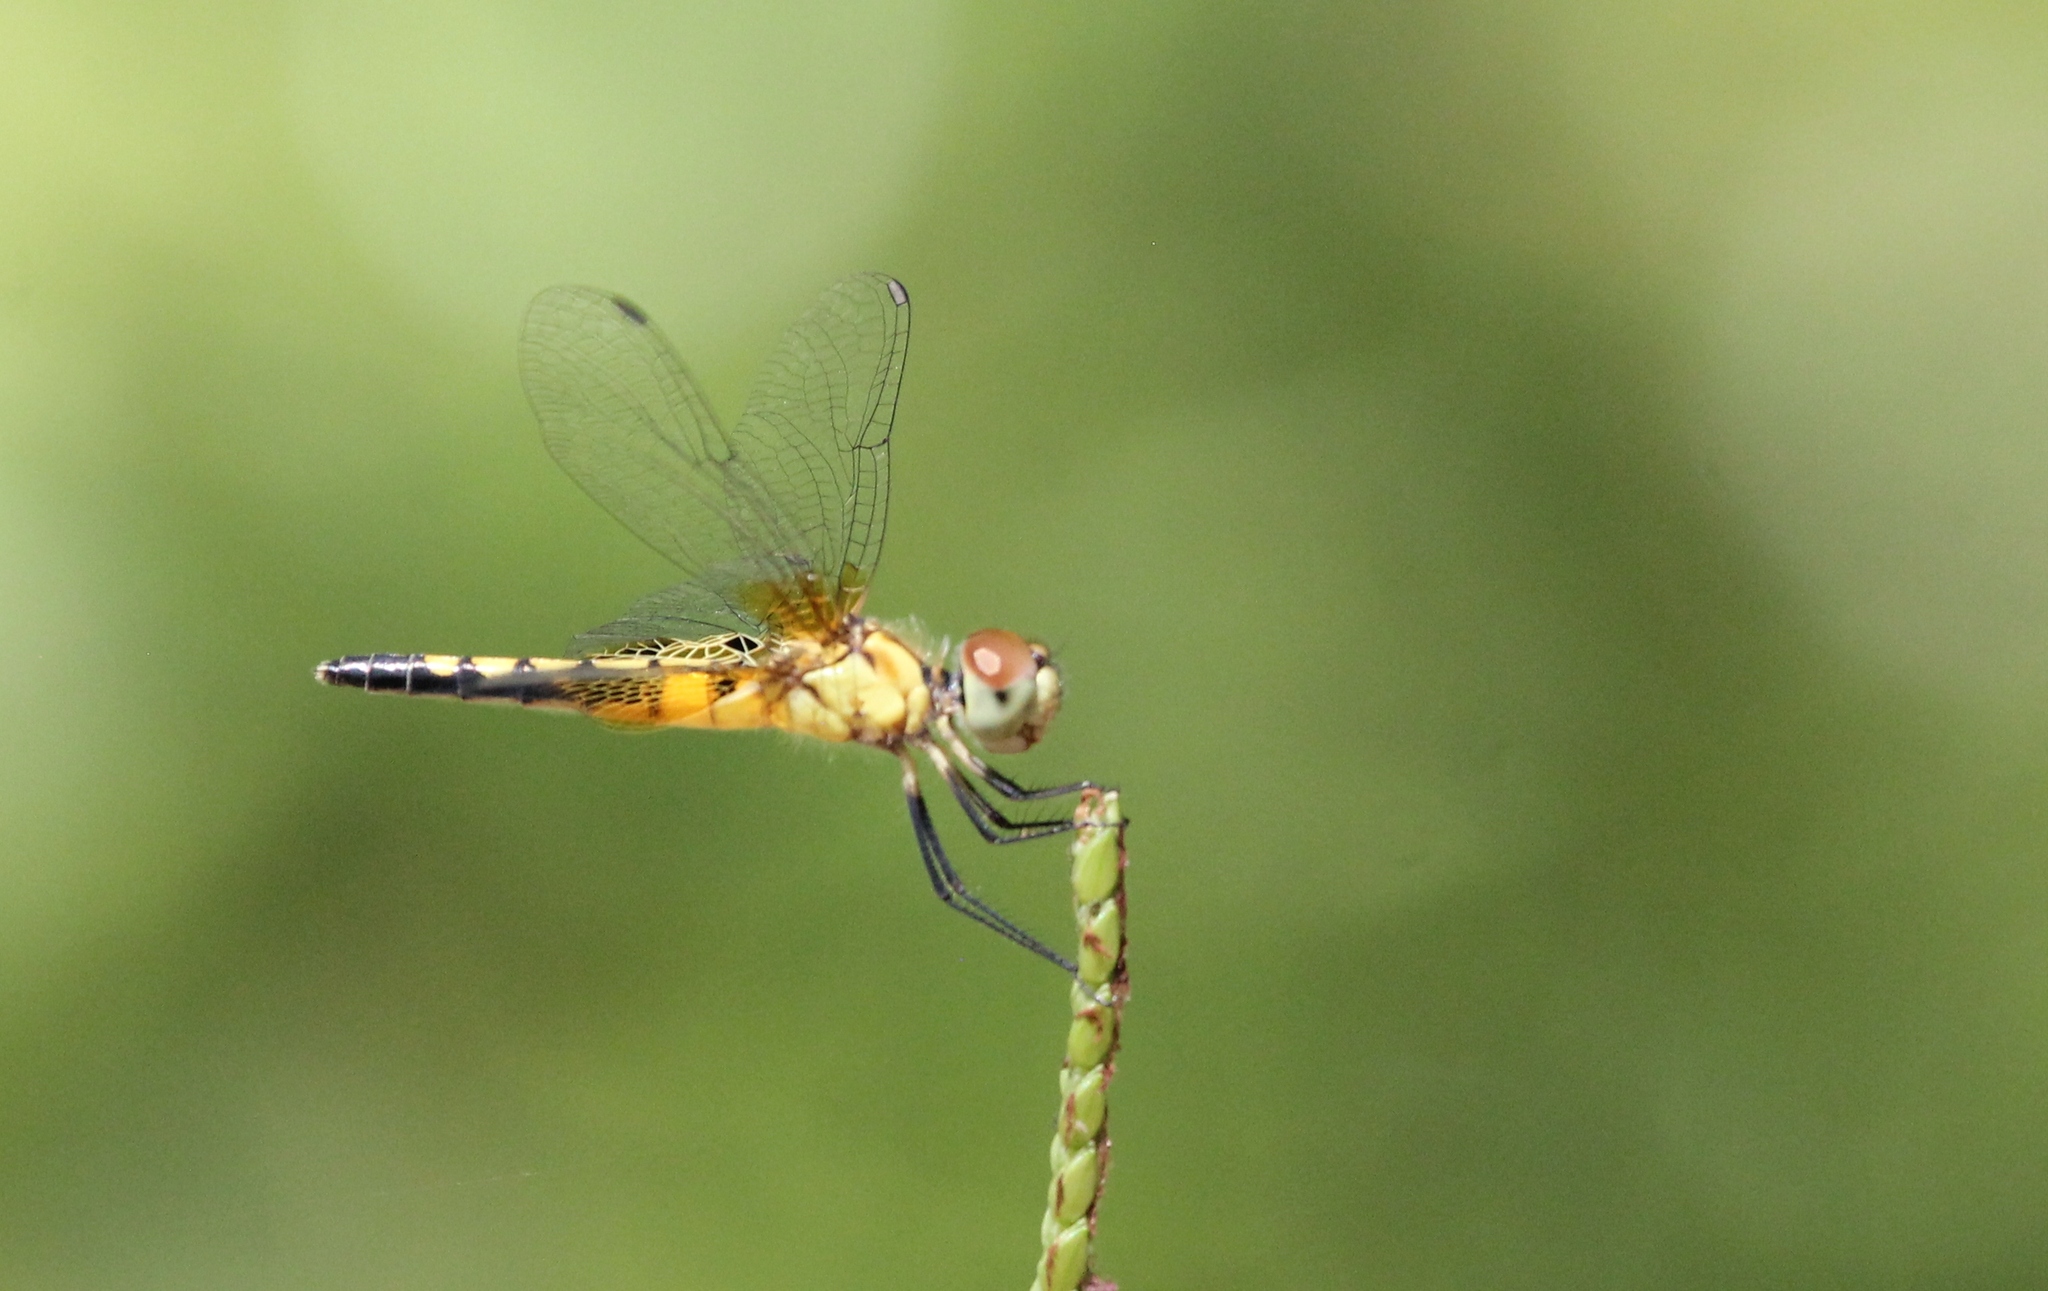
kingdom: Animalia
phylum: Arthropoda
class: Insecta
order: Odonata
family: Libellulidae
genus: Celithemis
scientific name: Celithemis amanda
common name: Amanda's pennant
